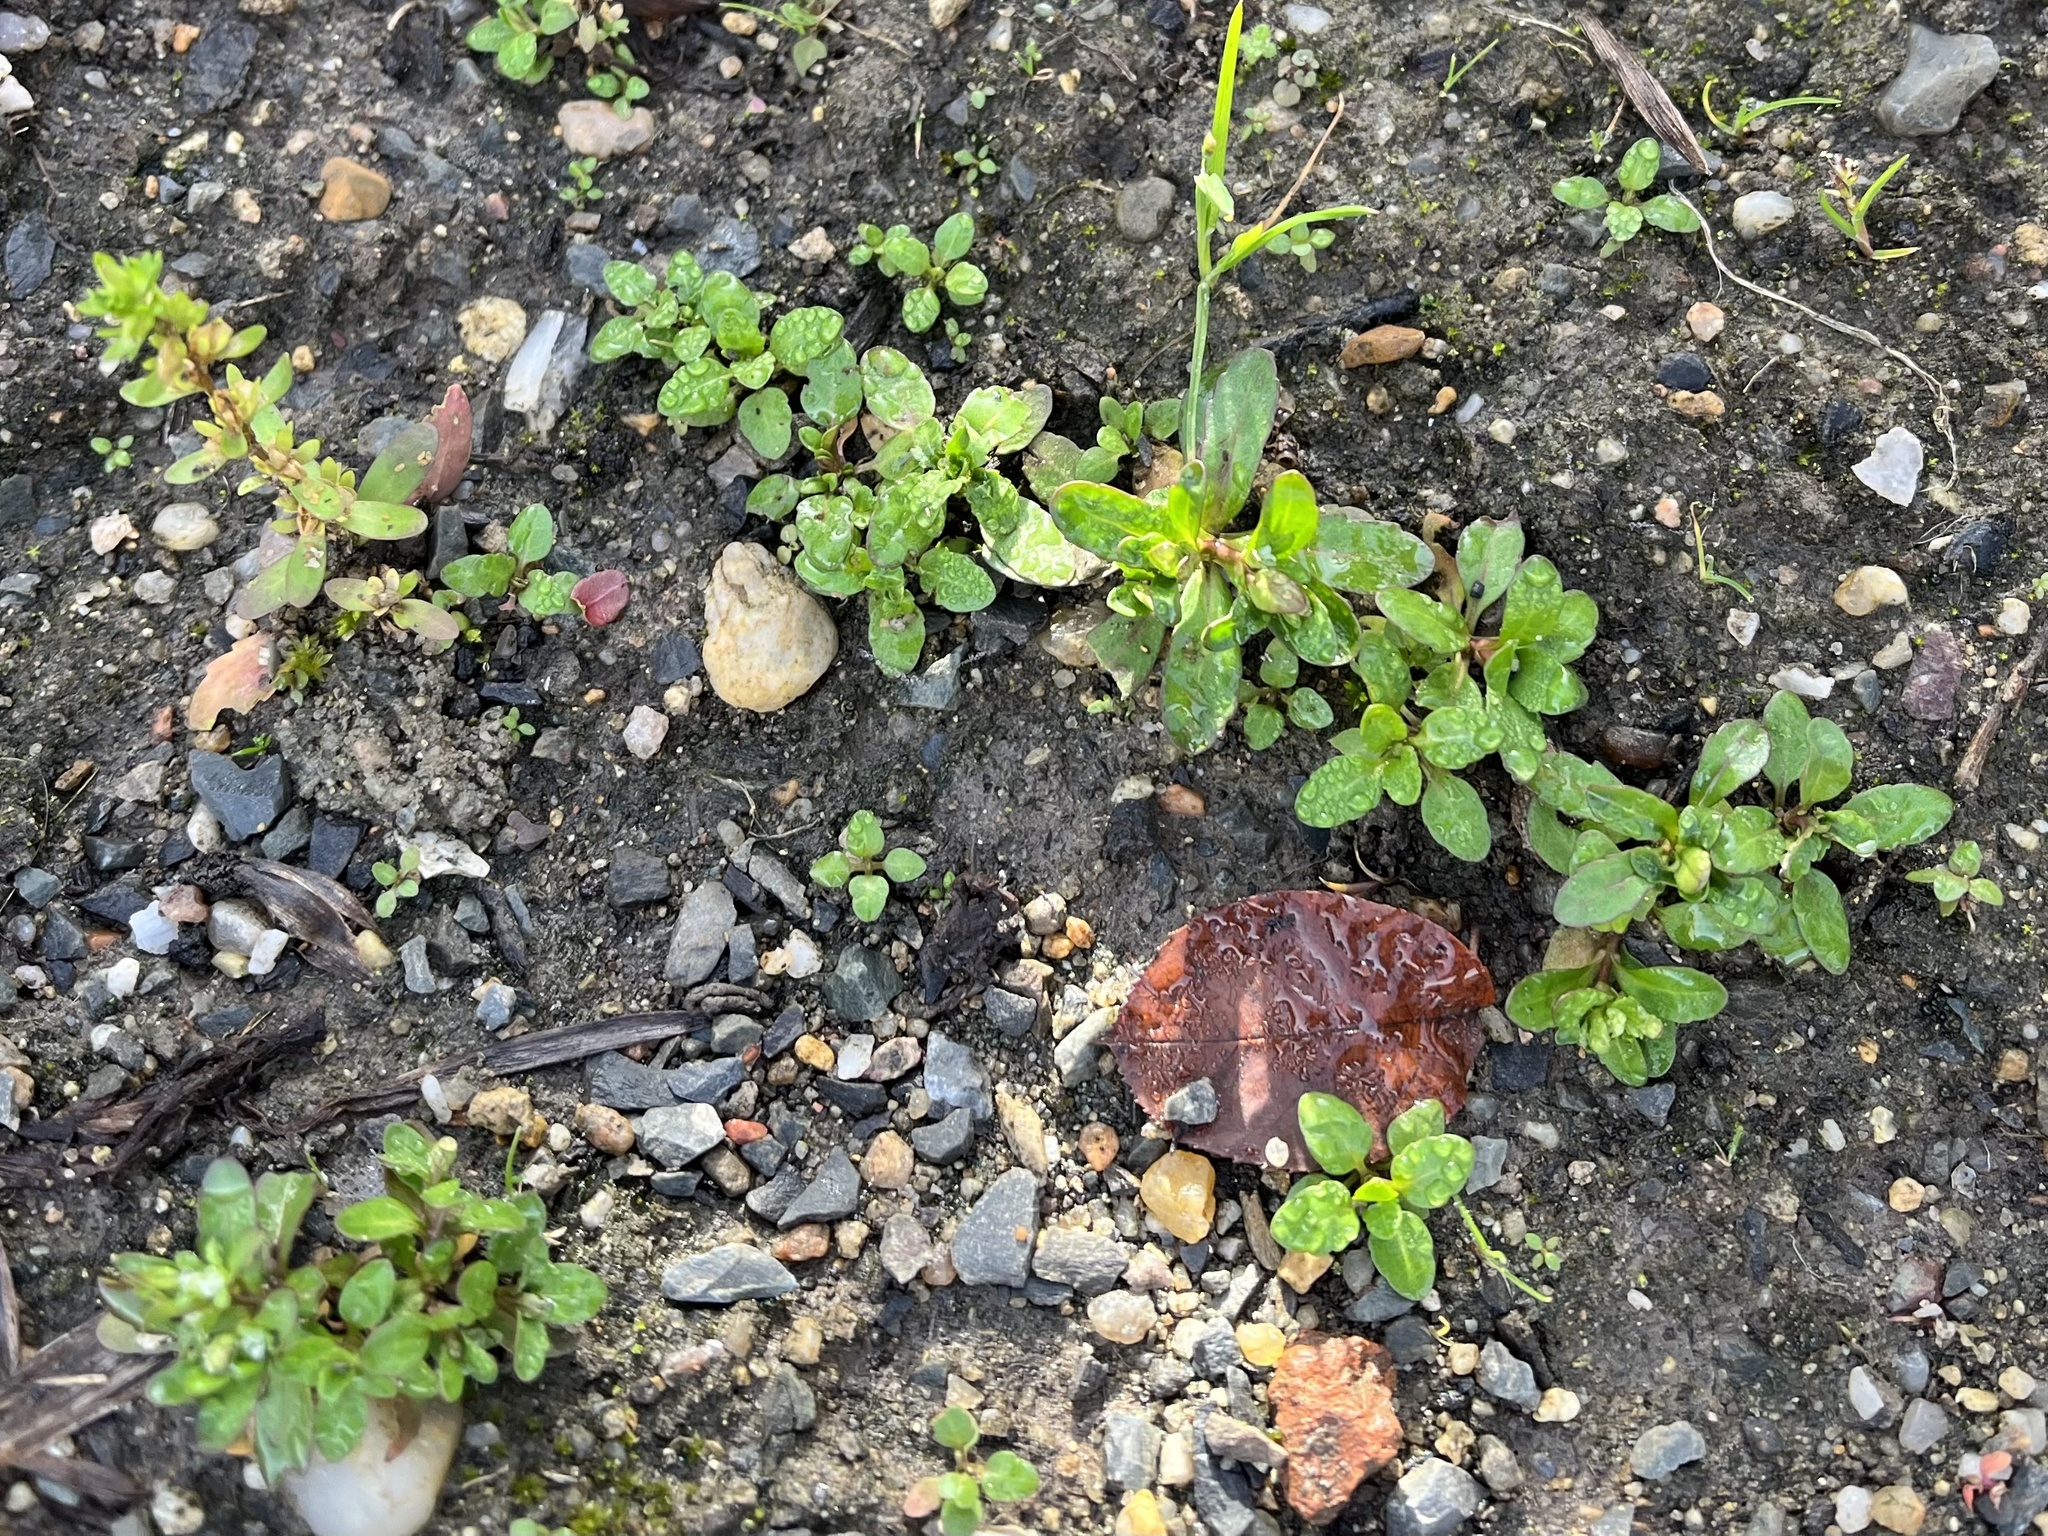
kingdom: Plantae
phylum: Tracheophyta
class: Magnoliopsida
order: Lamiales
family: Plantaginaceae
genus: Veronica
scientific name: Veronica peregrina
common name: Neckweed
